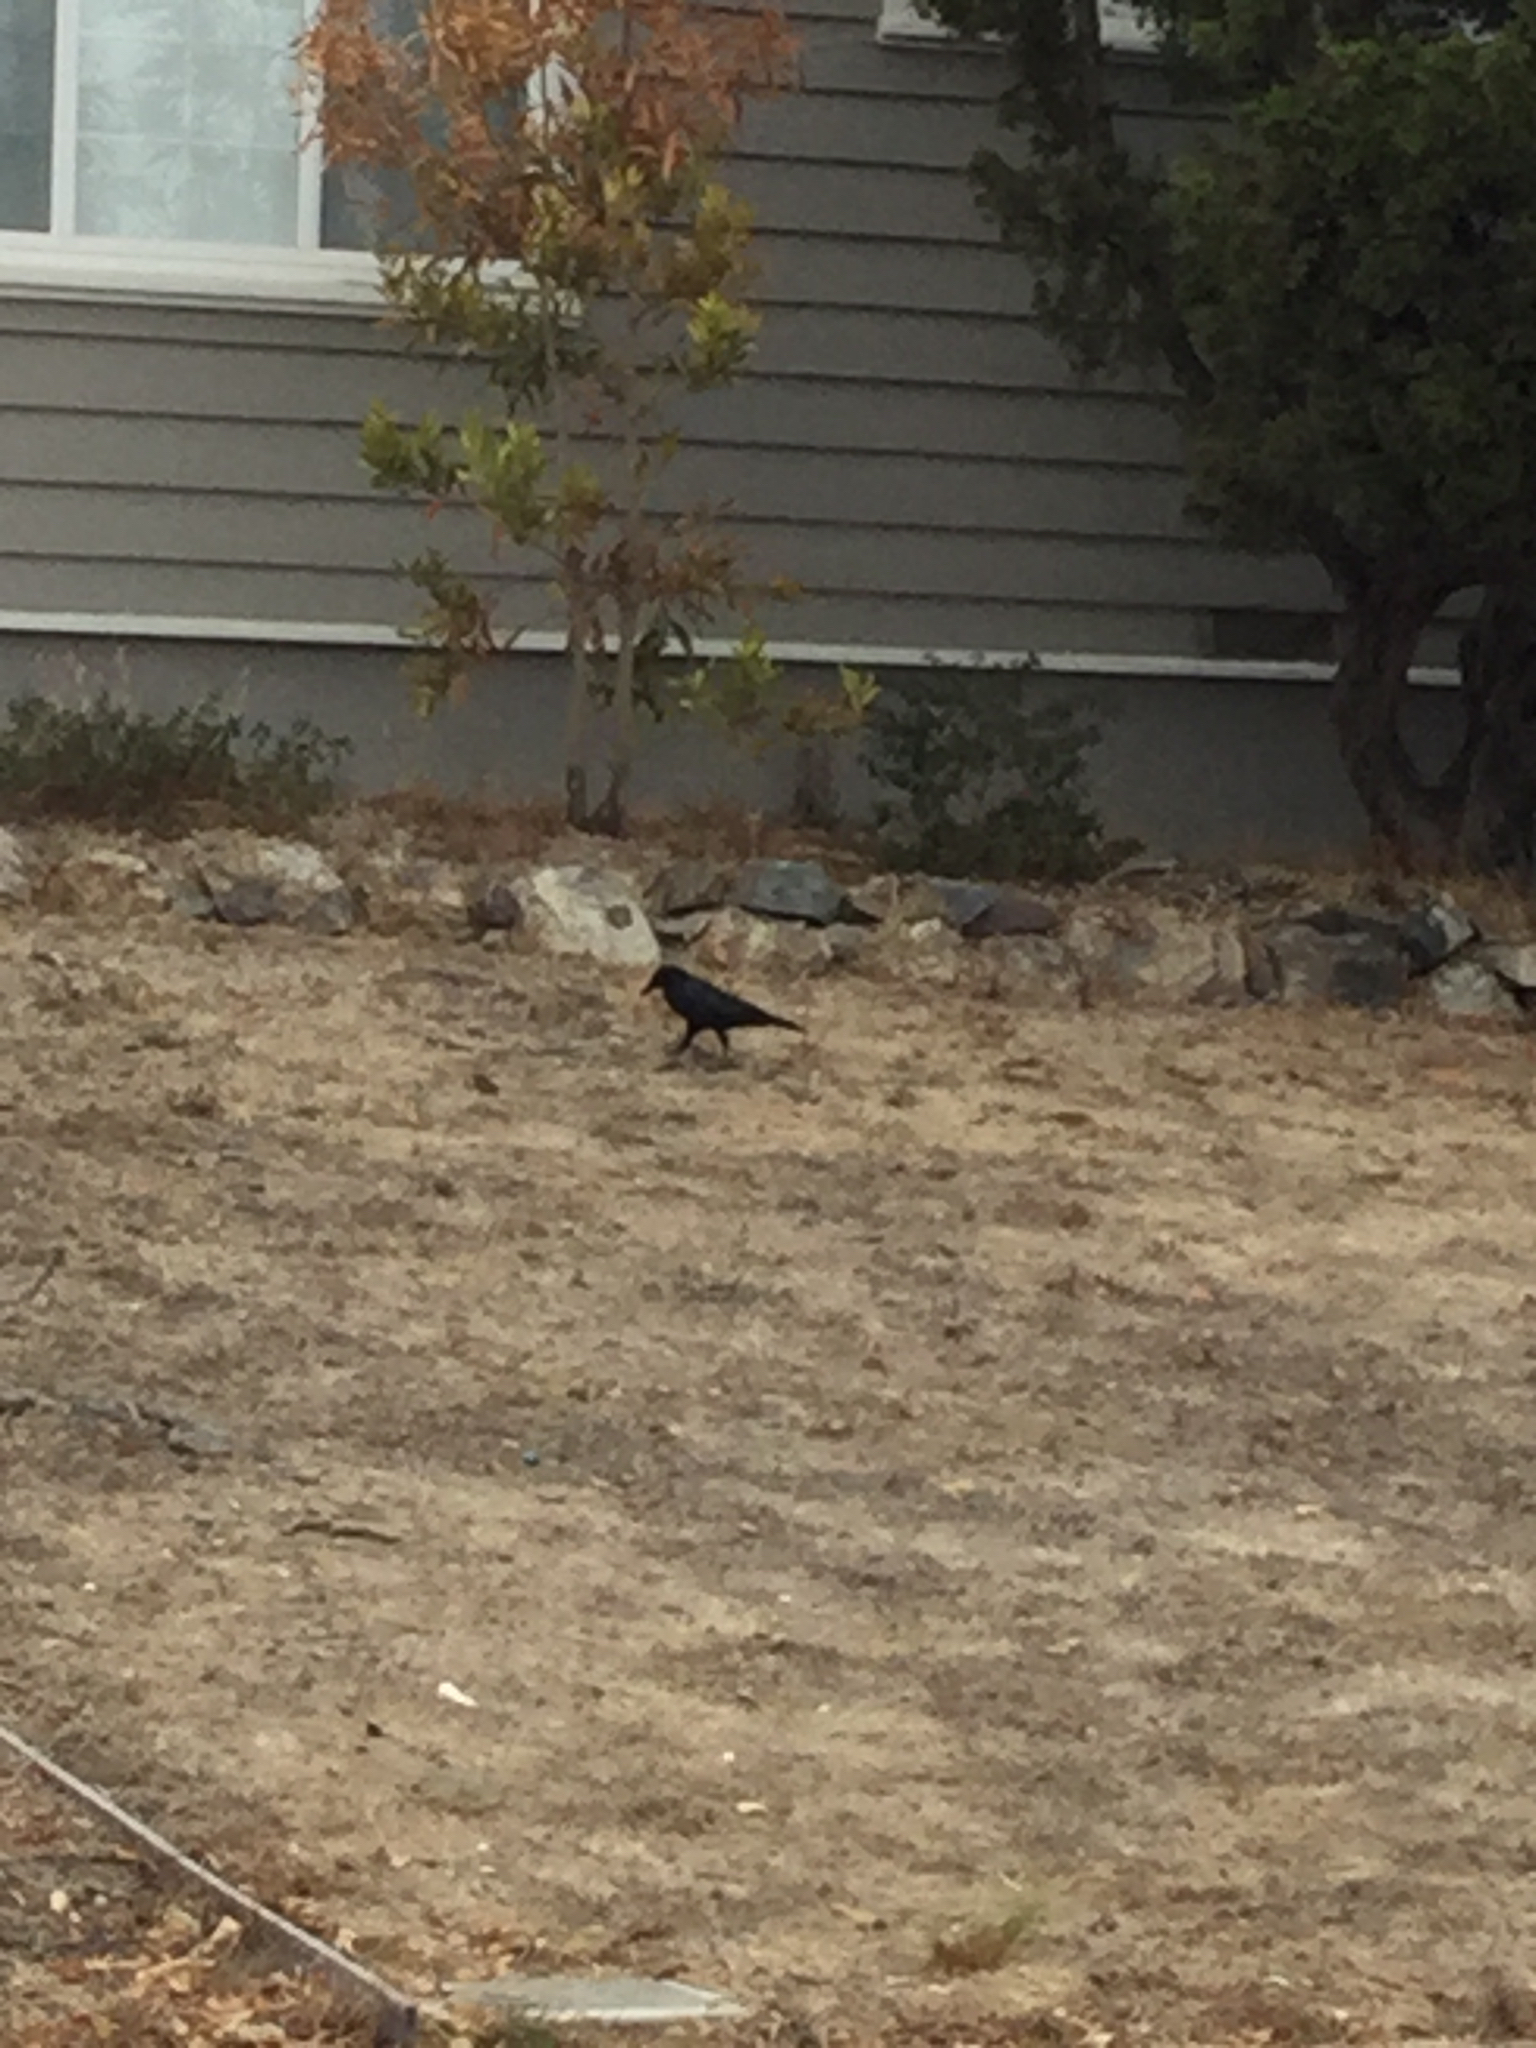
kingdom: Animalia
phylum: Chordata
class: Aves
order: Passeriformes
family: Corvidae
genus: Corvus
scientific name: Corvus brachyrhynchos
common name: American crow
